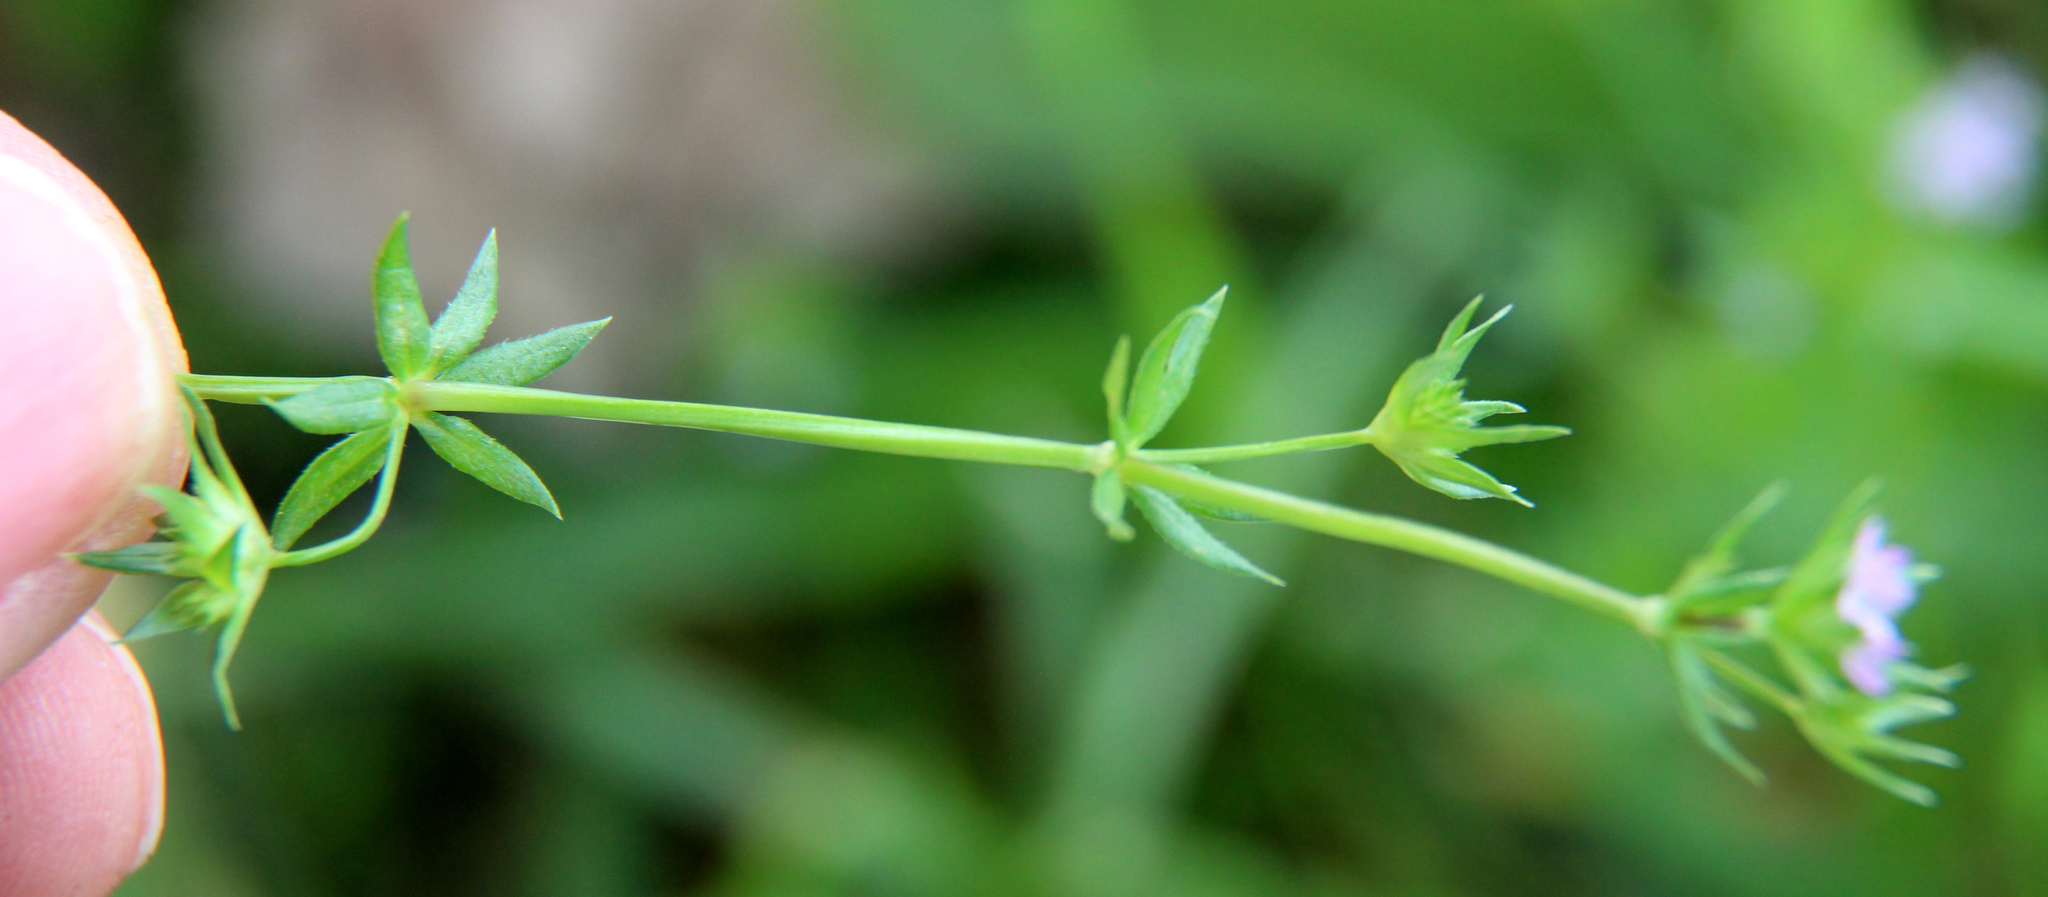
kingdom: Plantae
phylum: Tracheophyta
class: Magnoliopsida
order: Gentianales
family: Rubiaceae
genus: Sherardia
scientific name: Sherardia arvensis
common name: Field madder
